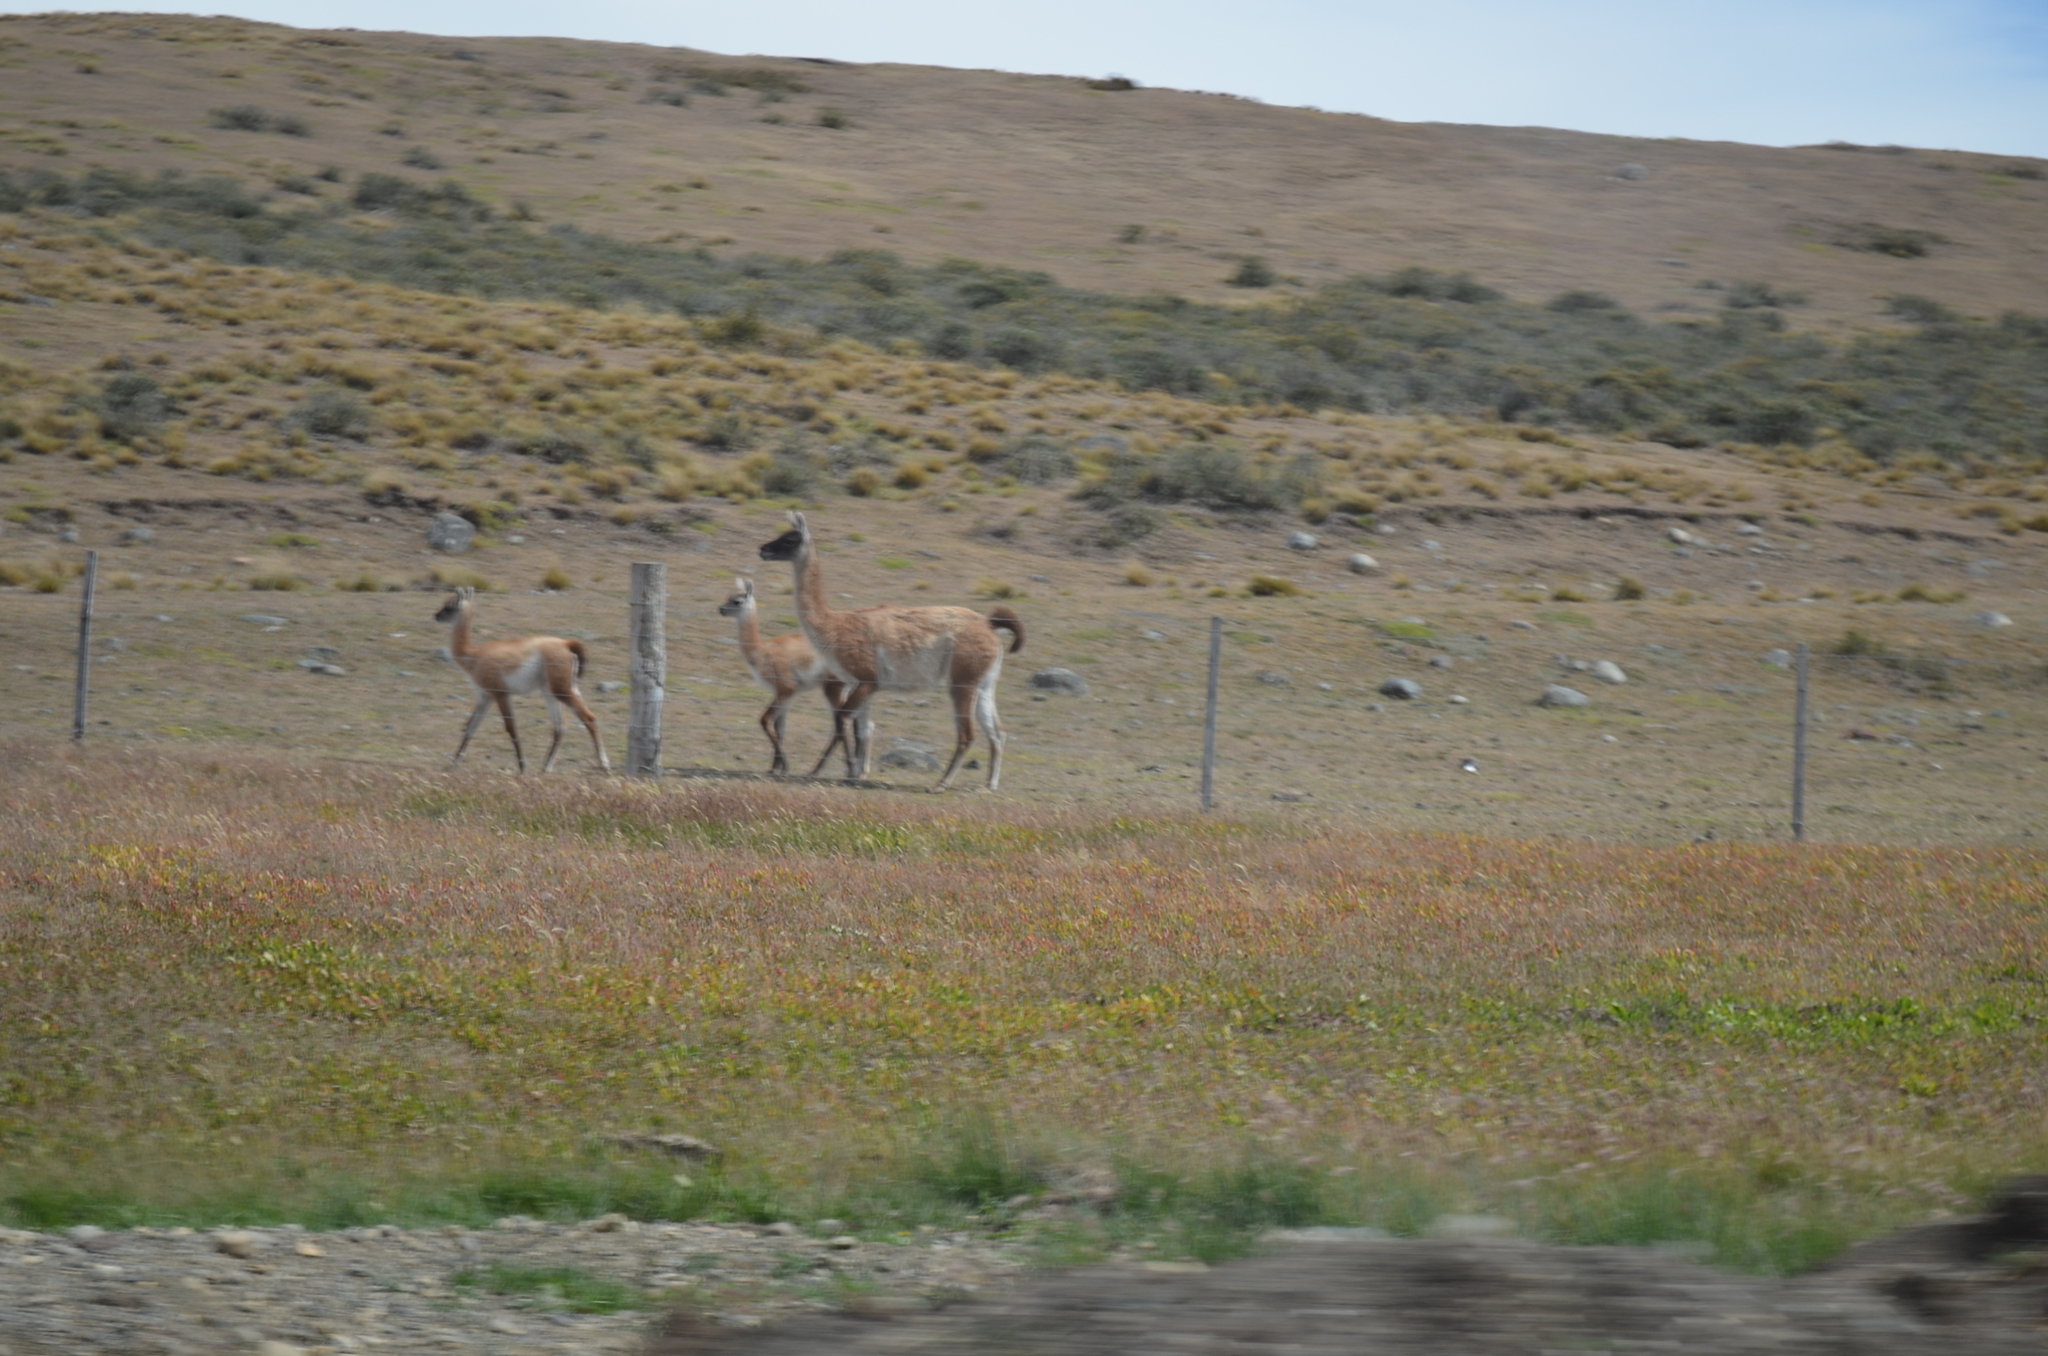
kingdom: Animalia
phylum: Chordata
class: Mammalia
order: Artiodactyla
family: Camelidae
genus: Lama
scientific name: Lama glama
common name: Llama
